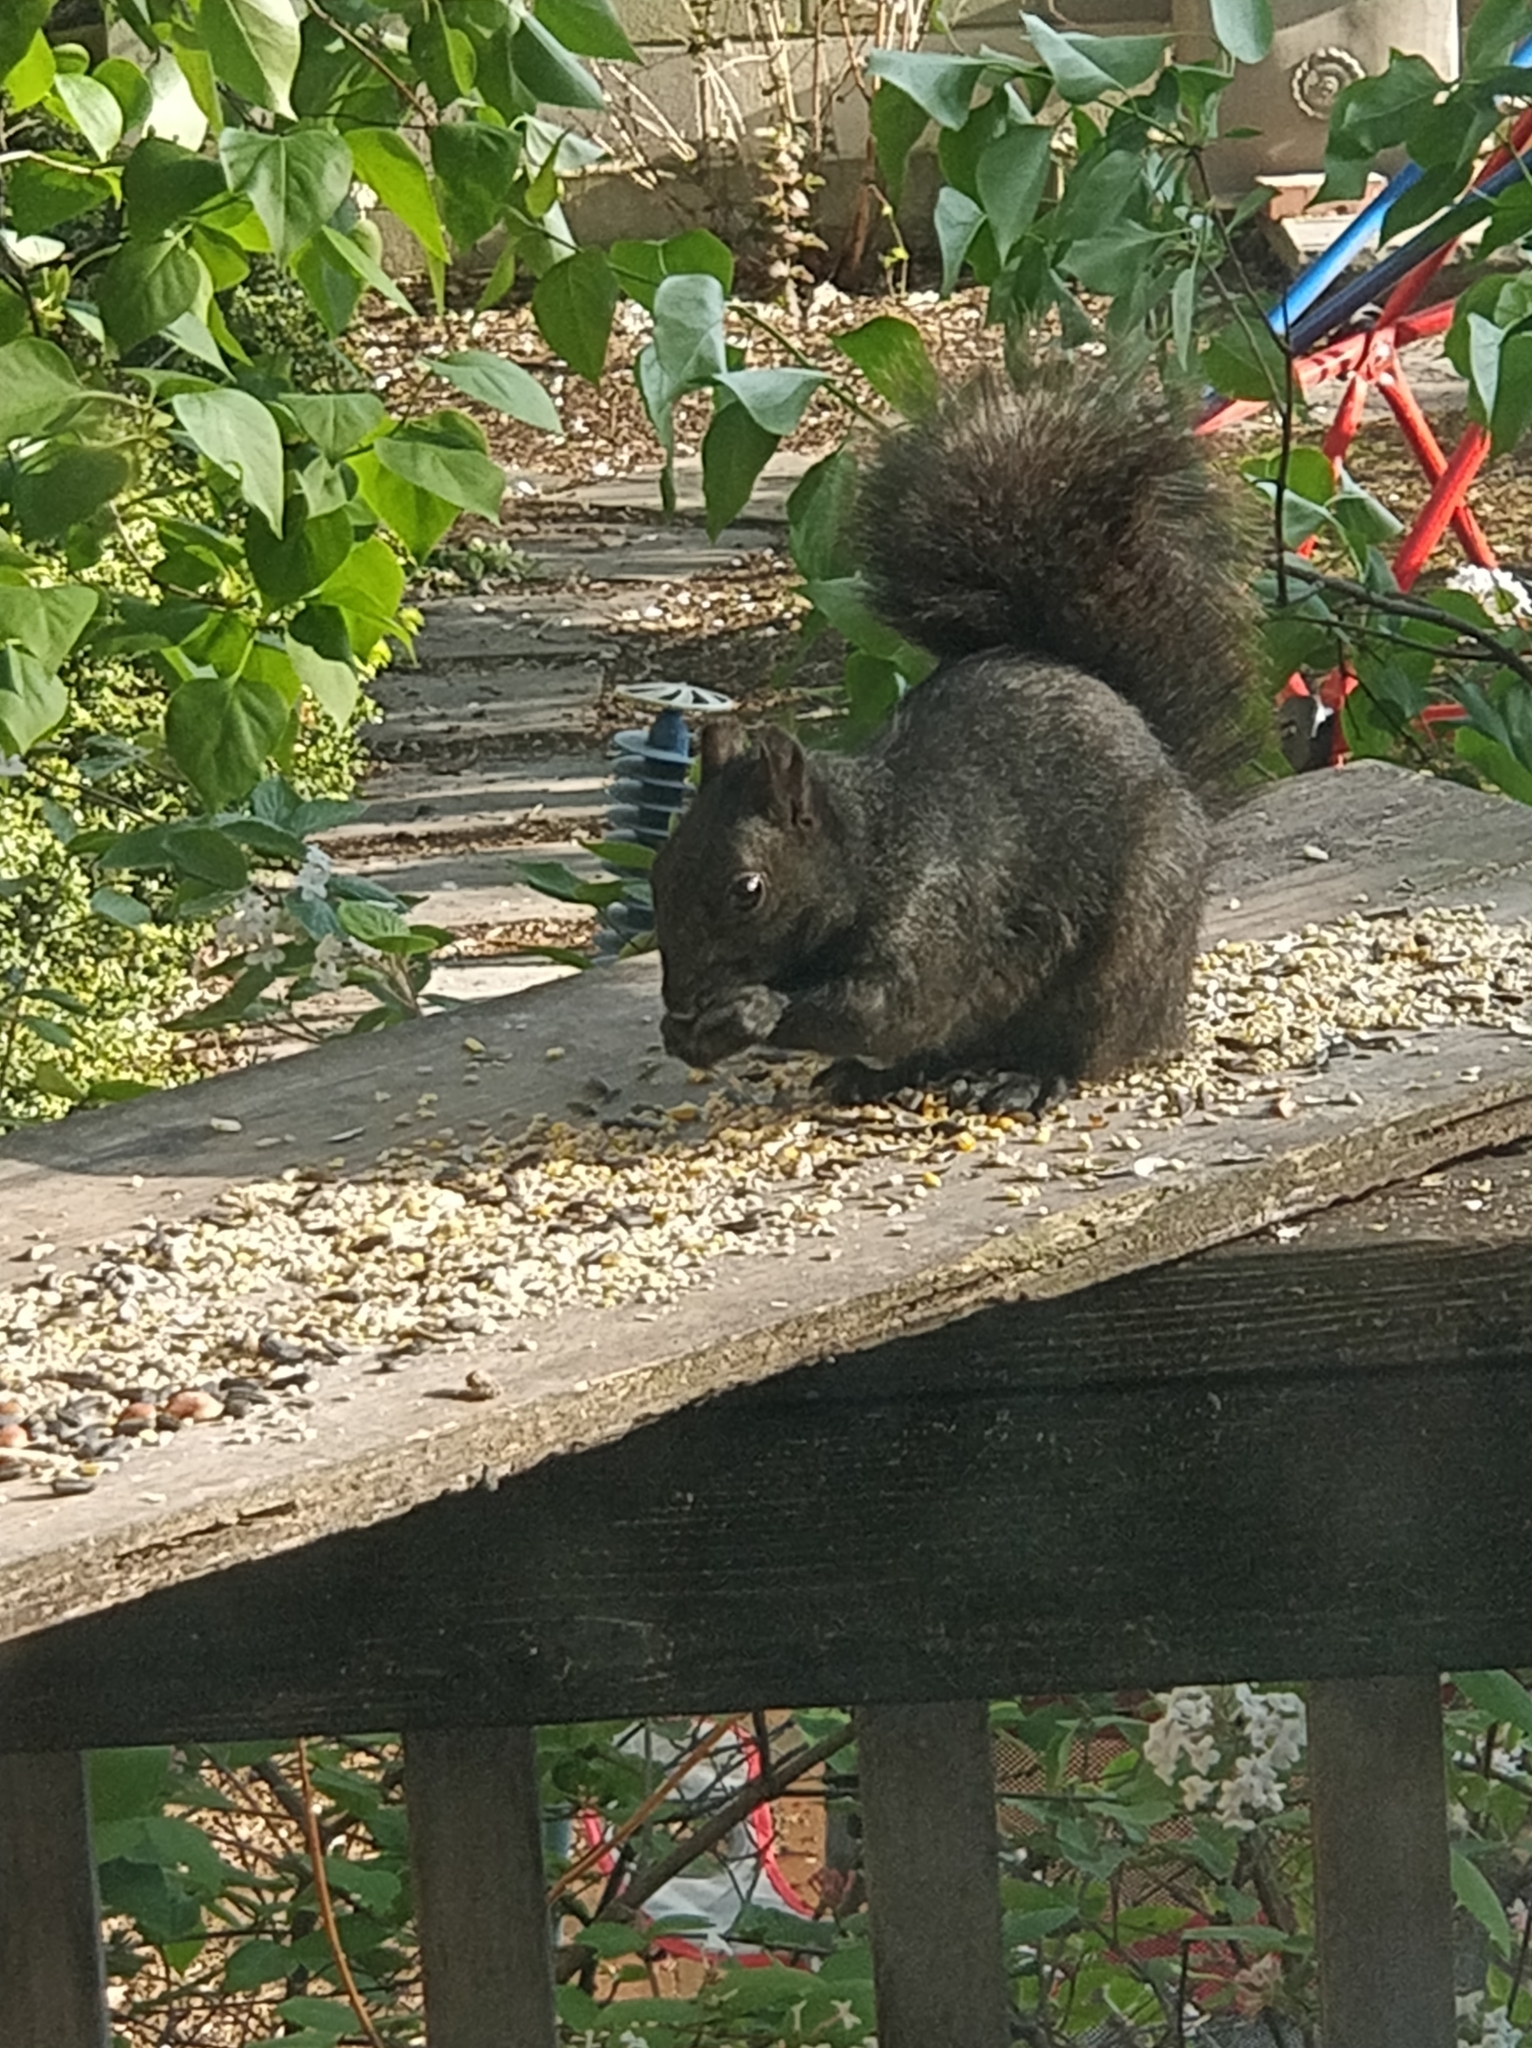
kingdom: Animalia
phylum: Chordata
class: Mammalia
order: Rodentia
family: Sciuridae
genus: Sciurus
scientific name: Sciurus carolinensis
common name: Eastern gray squirrel
